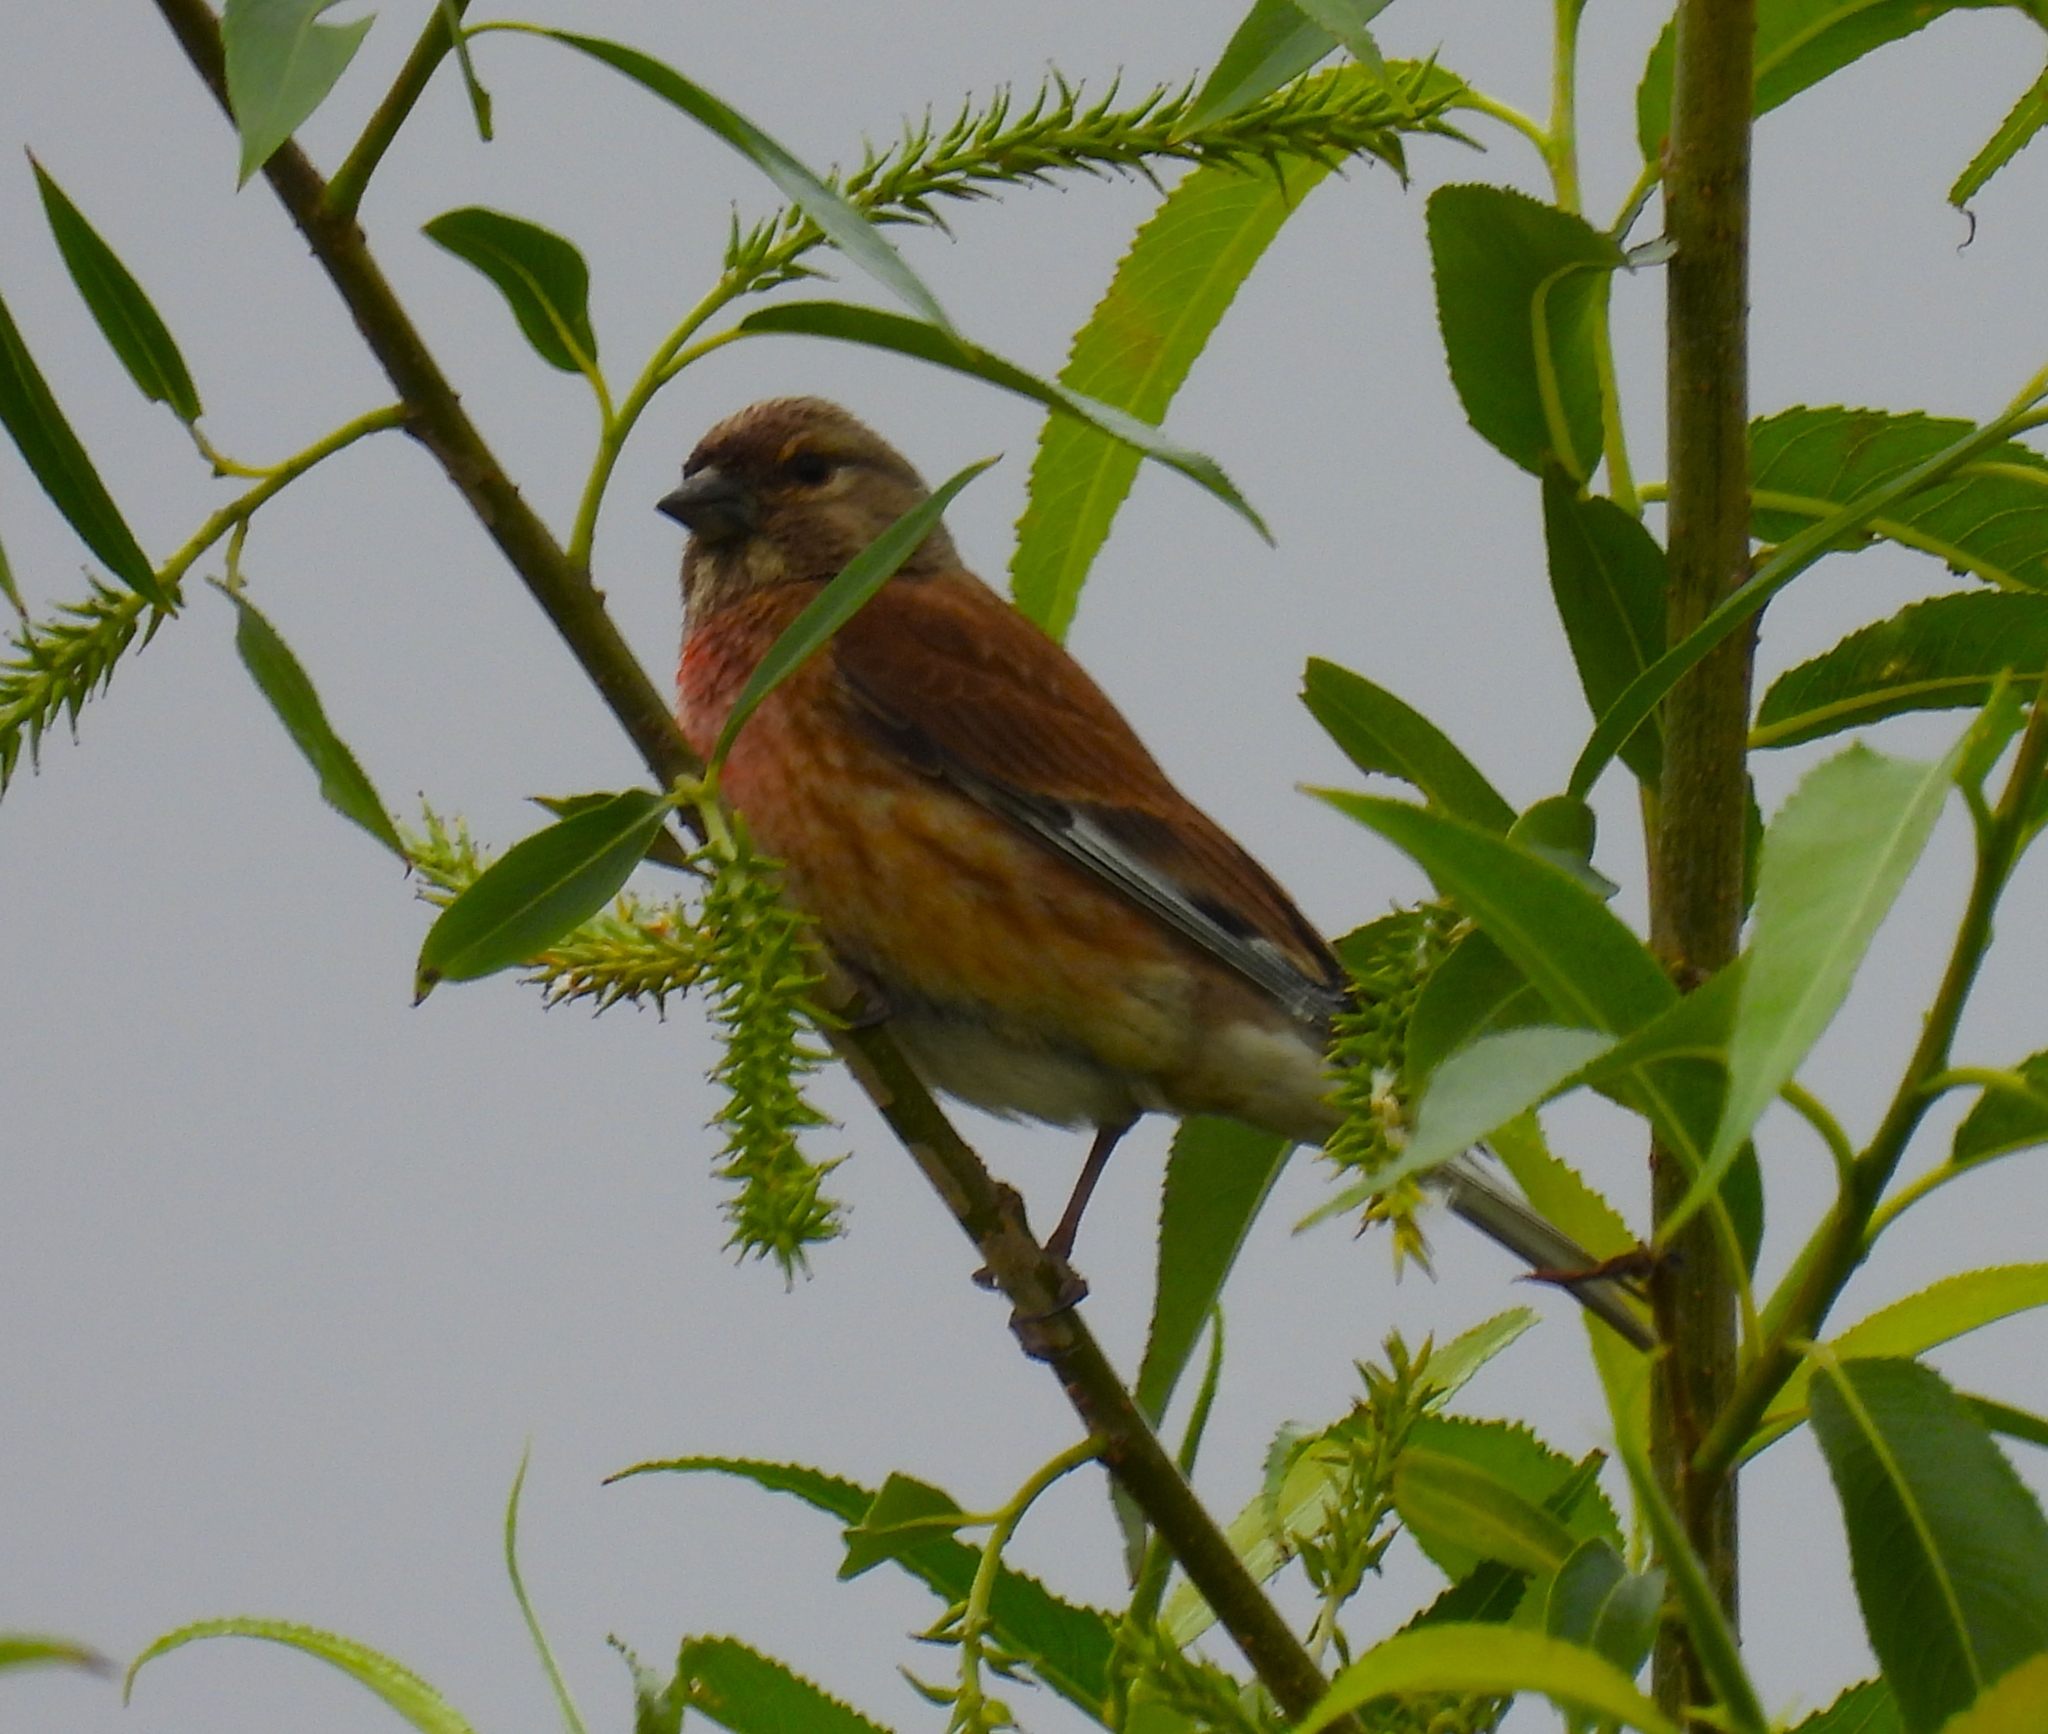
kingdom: Animalia
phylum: Chordata
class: Aves
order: Passeriformes
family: Fringillidae
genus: Linaria
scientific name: Linaria cannabina
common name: Common linnet
